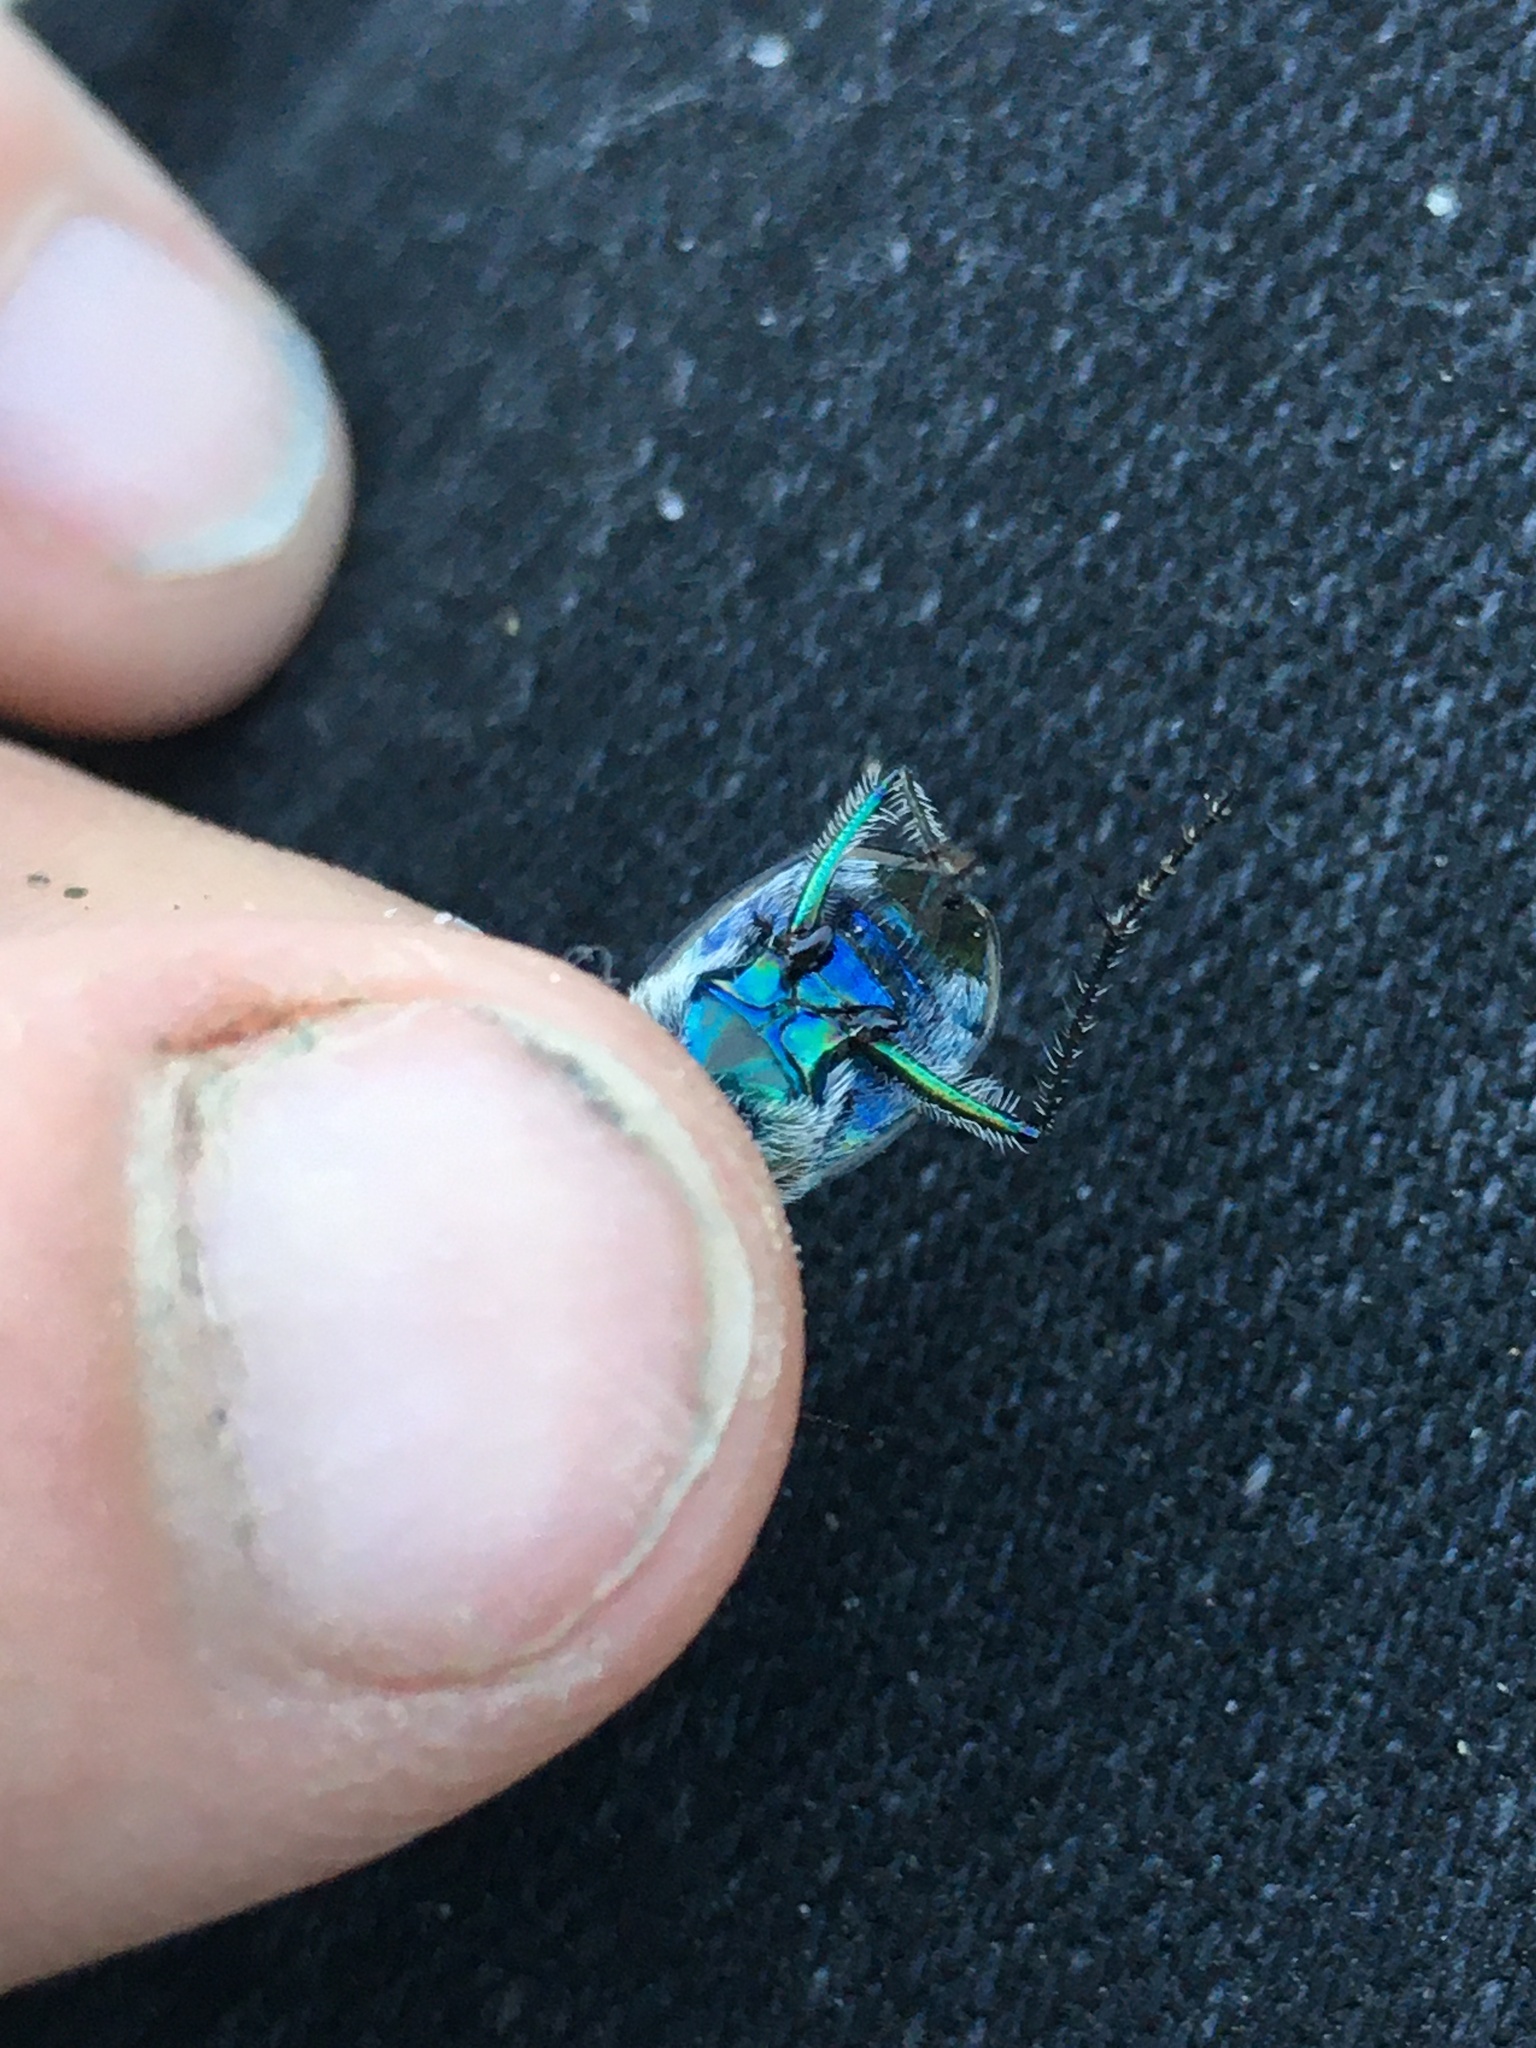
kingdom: Animalia
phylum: Arthropoda
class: Insecta
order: Coleoptera
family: Carabidae
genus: Cicindela
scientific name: Cicindela repanda
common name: Bronzed tiger beetle
